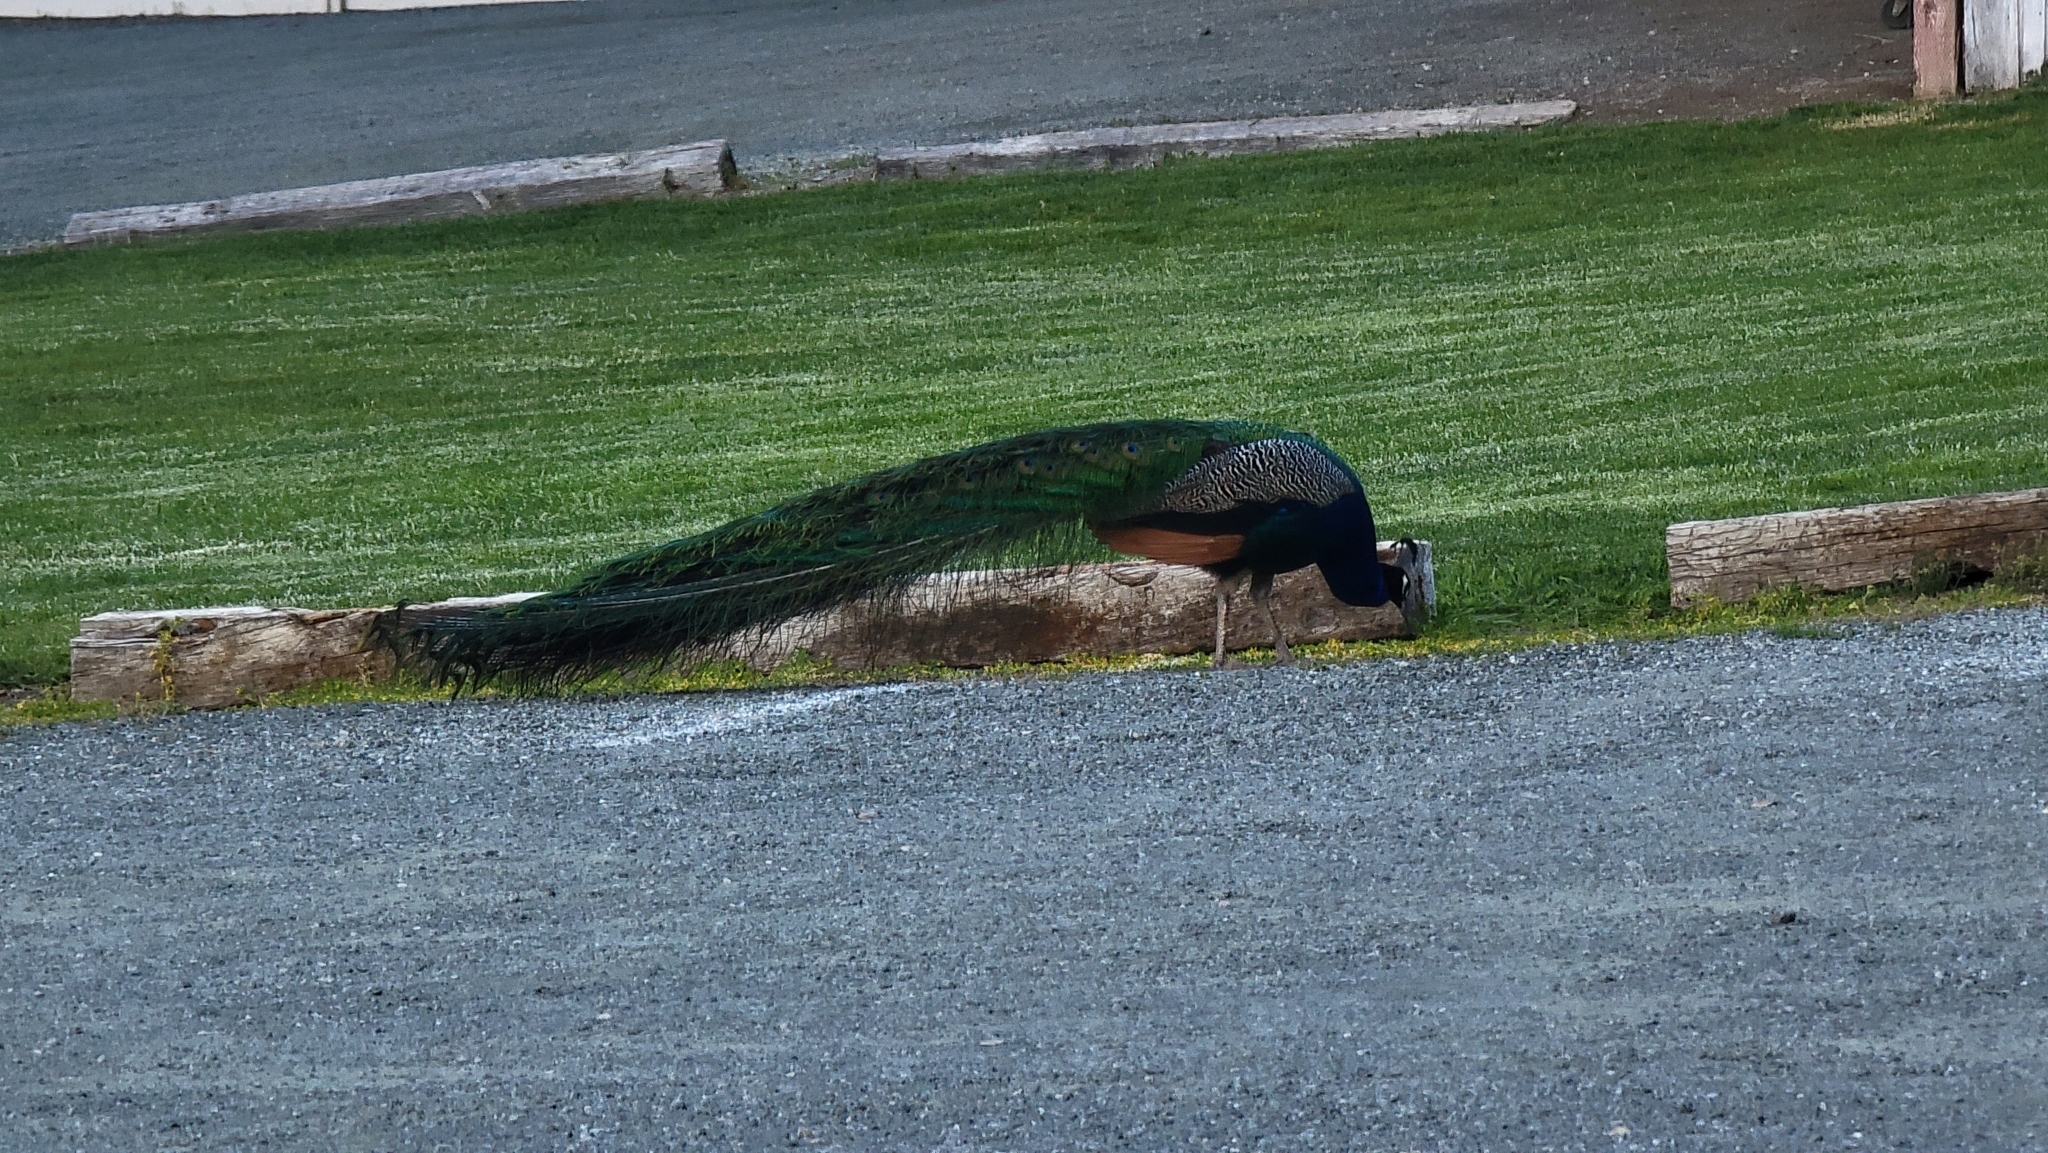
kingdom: Animalia
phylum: Chordata
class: Aves
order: Galliformes
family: Phasianidae
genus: Pavo
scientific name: Pavo cristatus
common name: Indian peafowl
